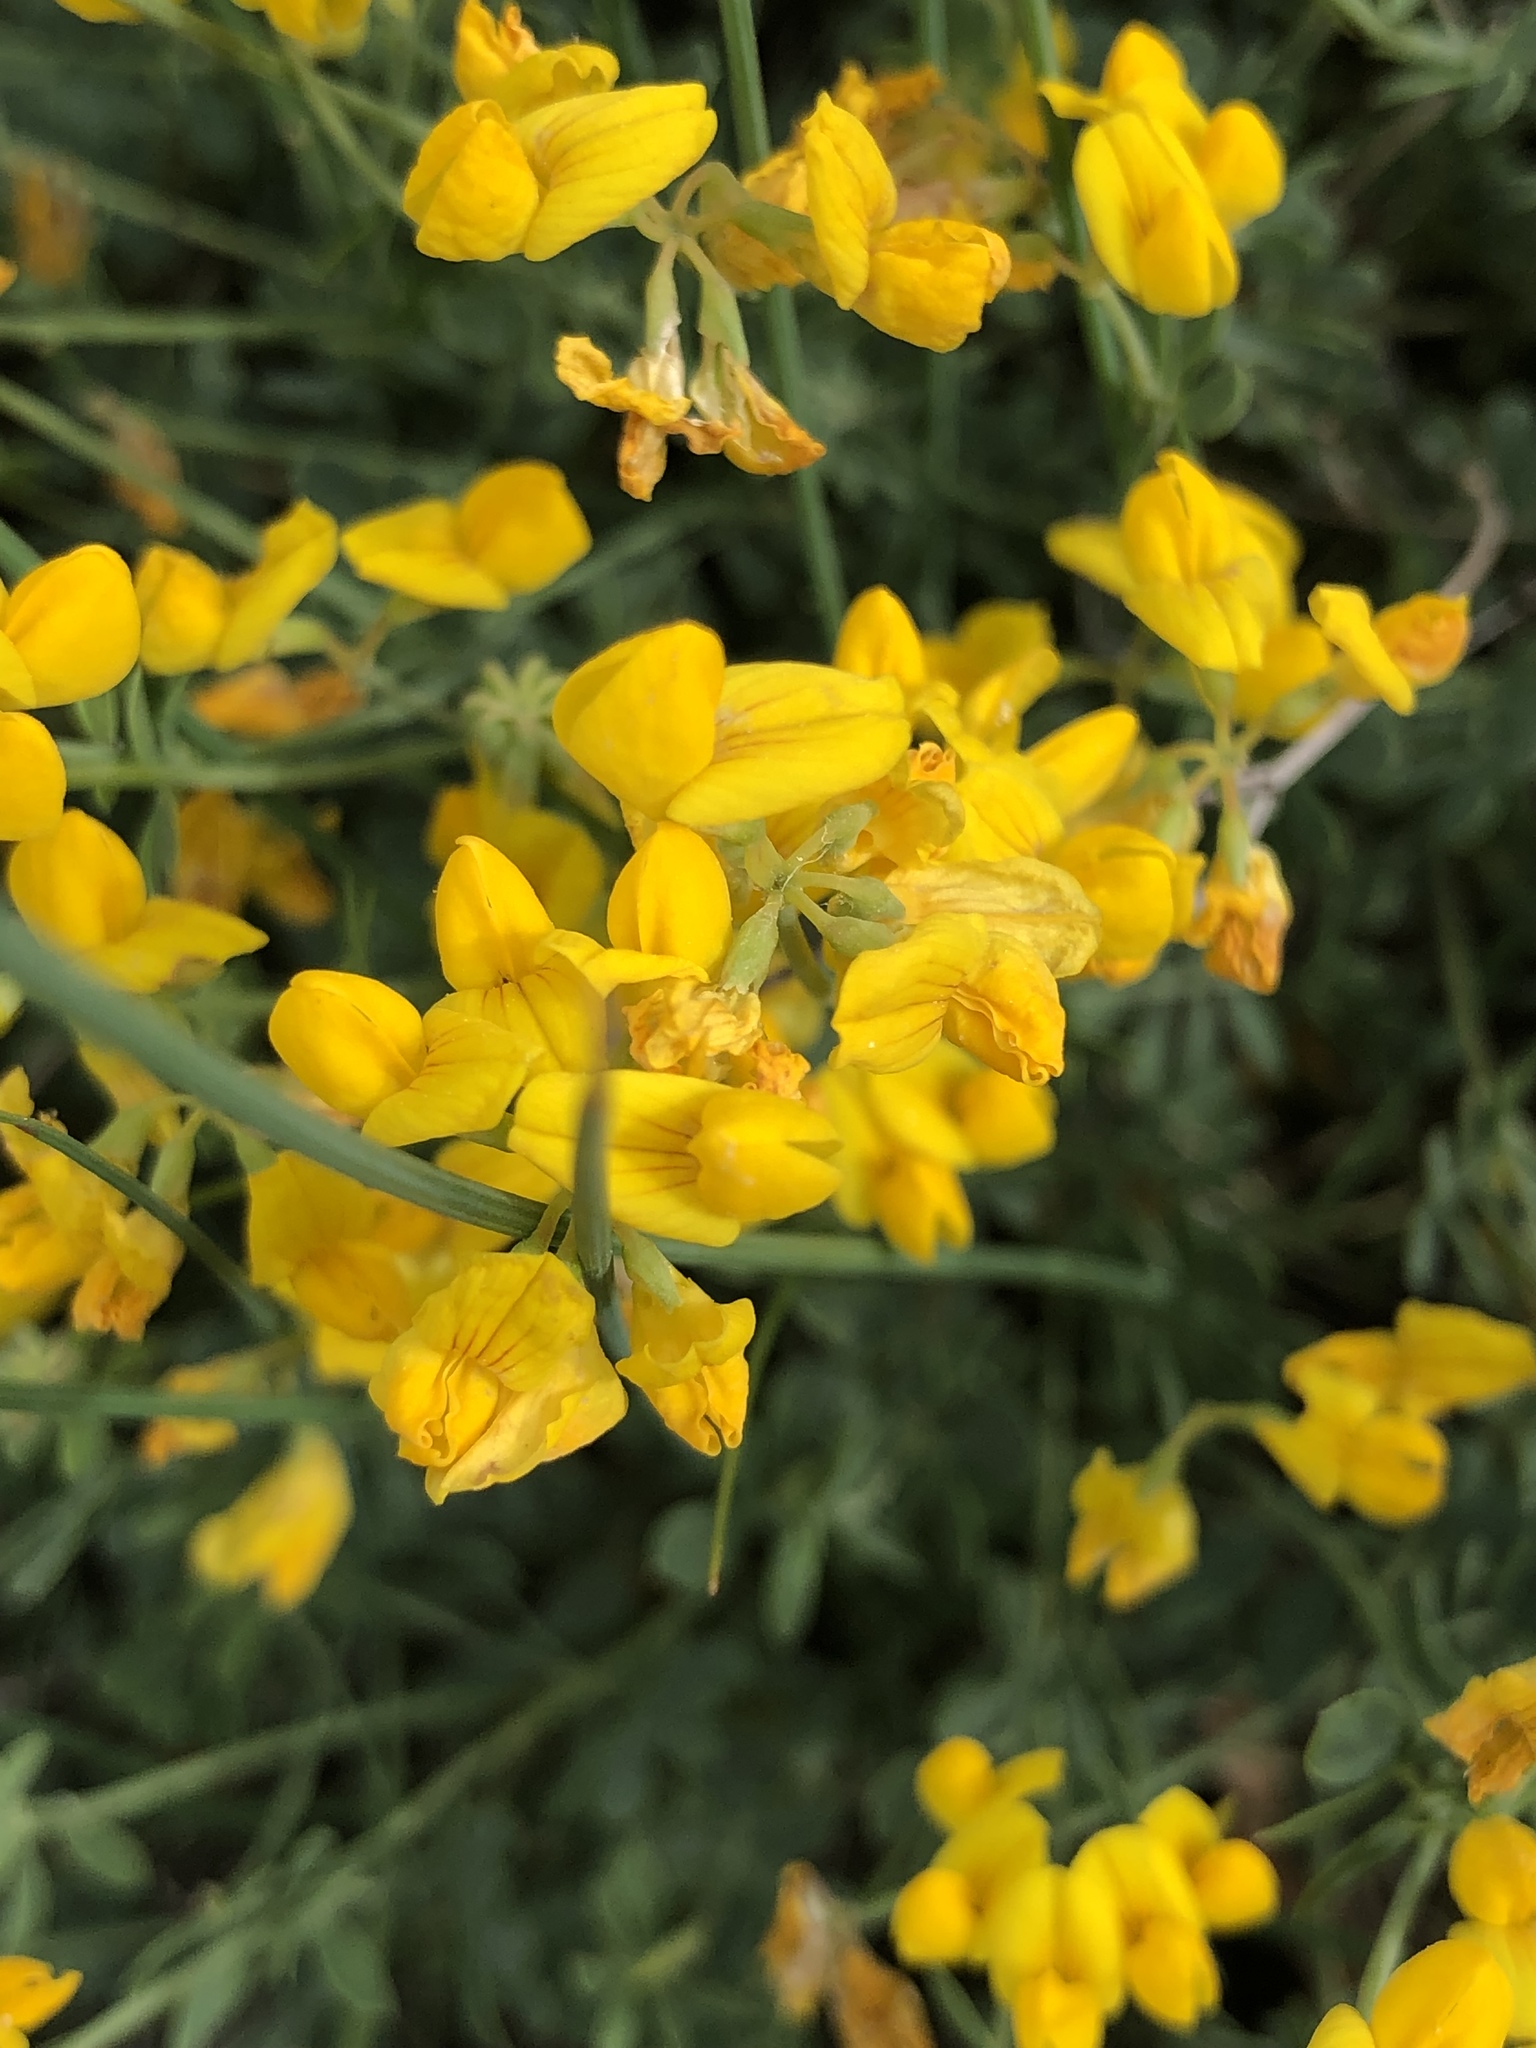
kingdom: Plantae
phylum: Tracheophyta
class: Magnoliopsida
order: Fabales
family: Fabaceae
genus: Spartium
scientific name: Spartium junceum
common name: Spanish broom
